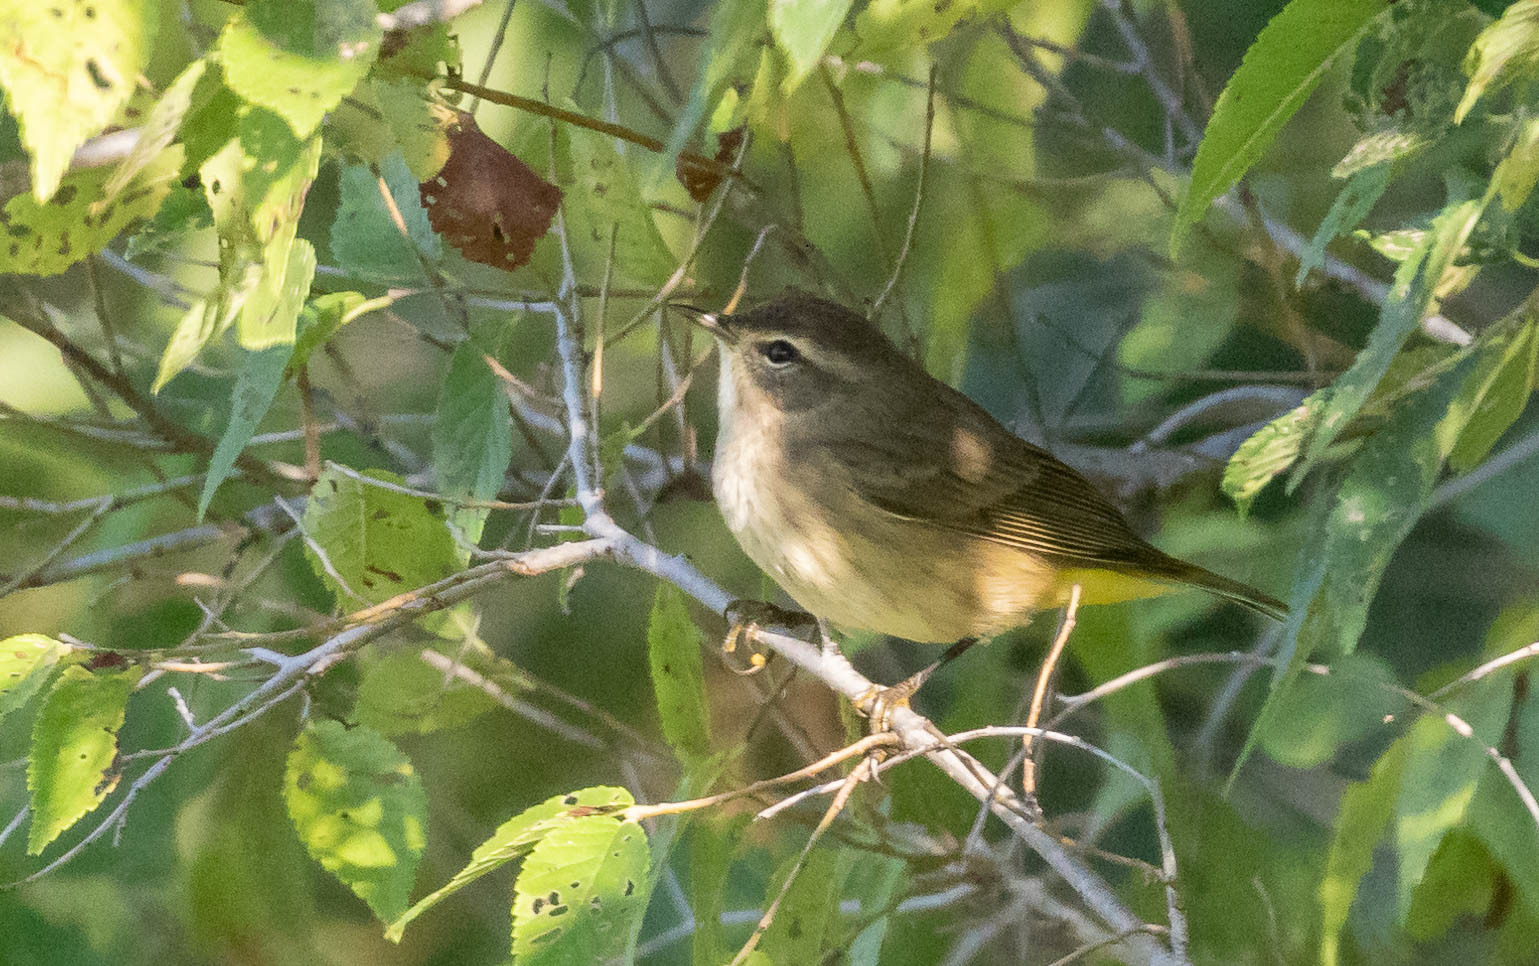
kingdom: Animalia
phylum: Chordata
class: Aves
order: Passeriformes
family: Parulidae
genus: Setophaga
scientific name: Setophaga palmarum
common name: Palm warbler
